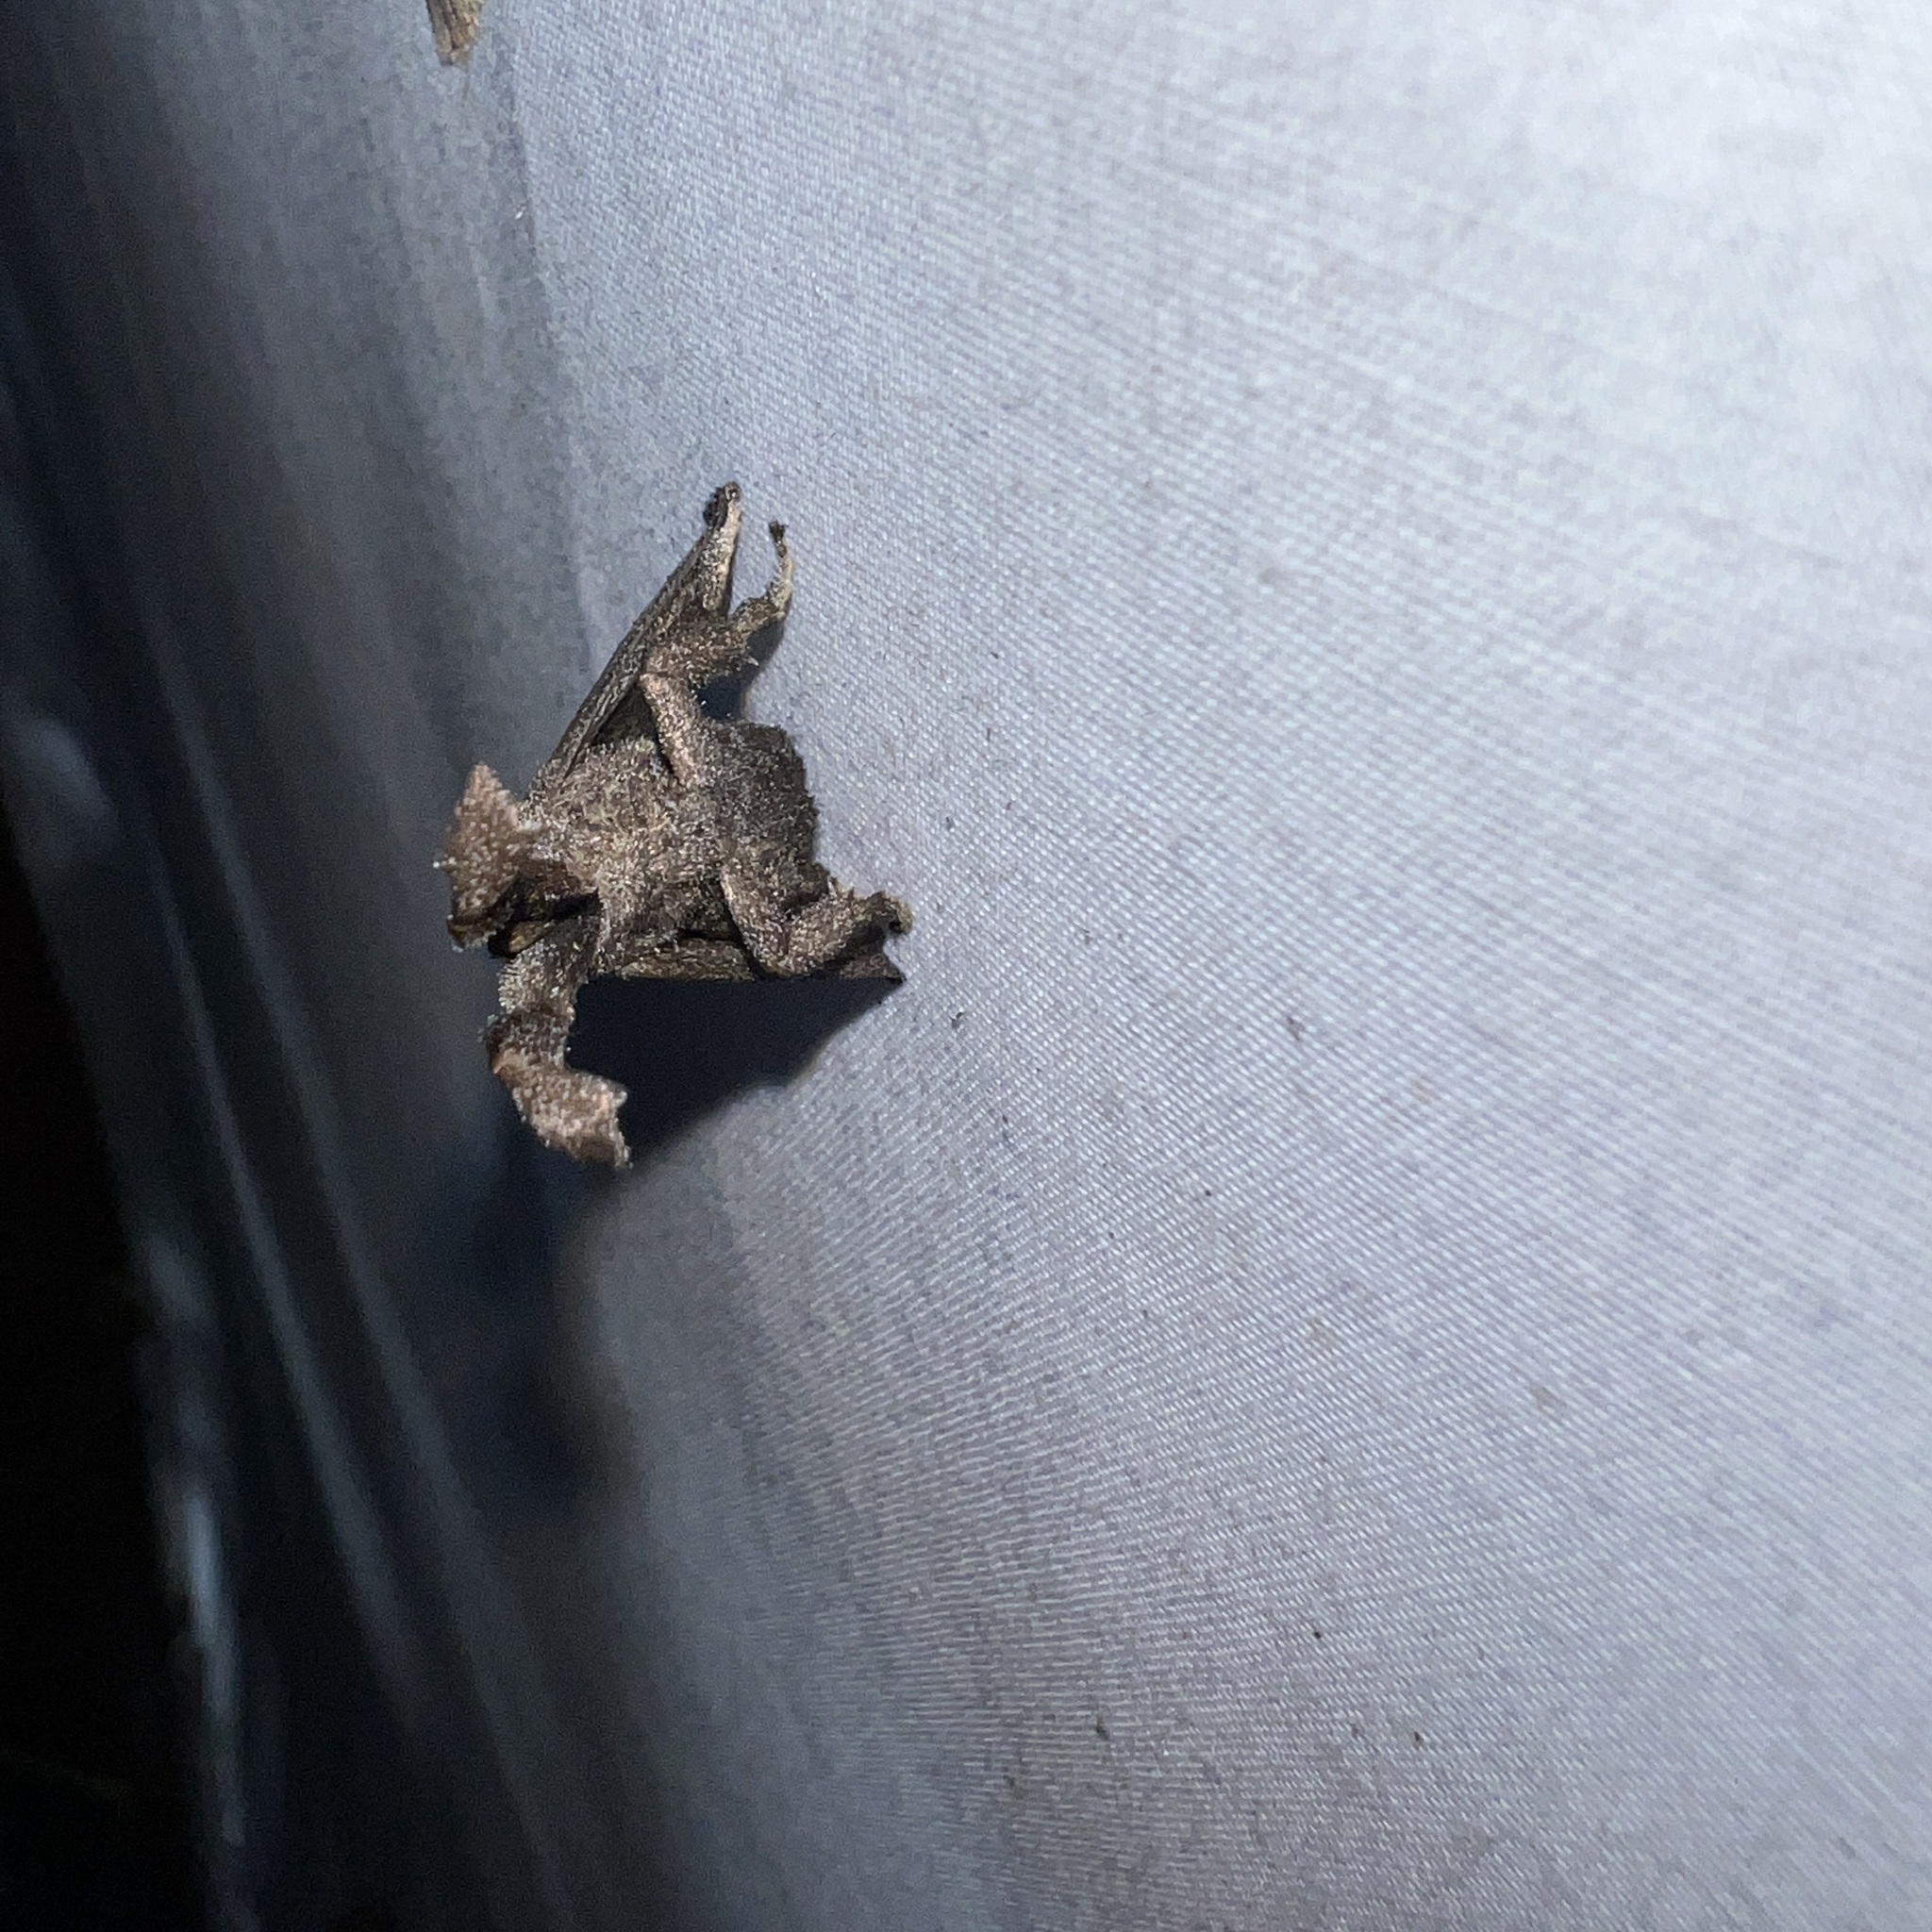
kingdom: Animalia
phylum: Arthropoda
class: Insecta
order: Lepidoptera
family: Limacodidae
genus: Perola
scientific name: Perola repetita
